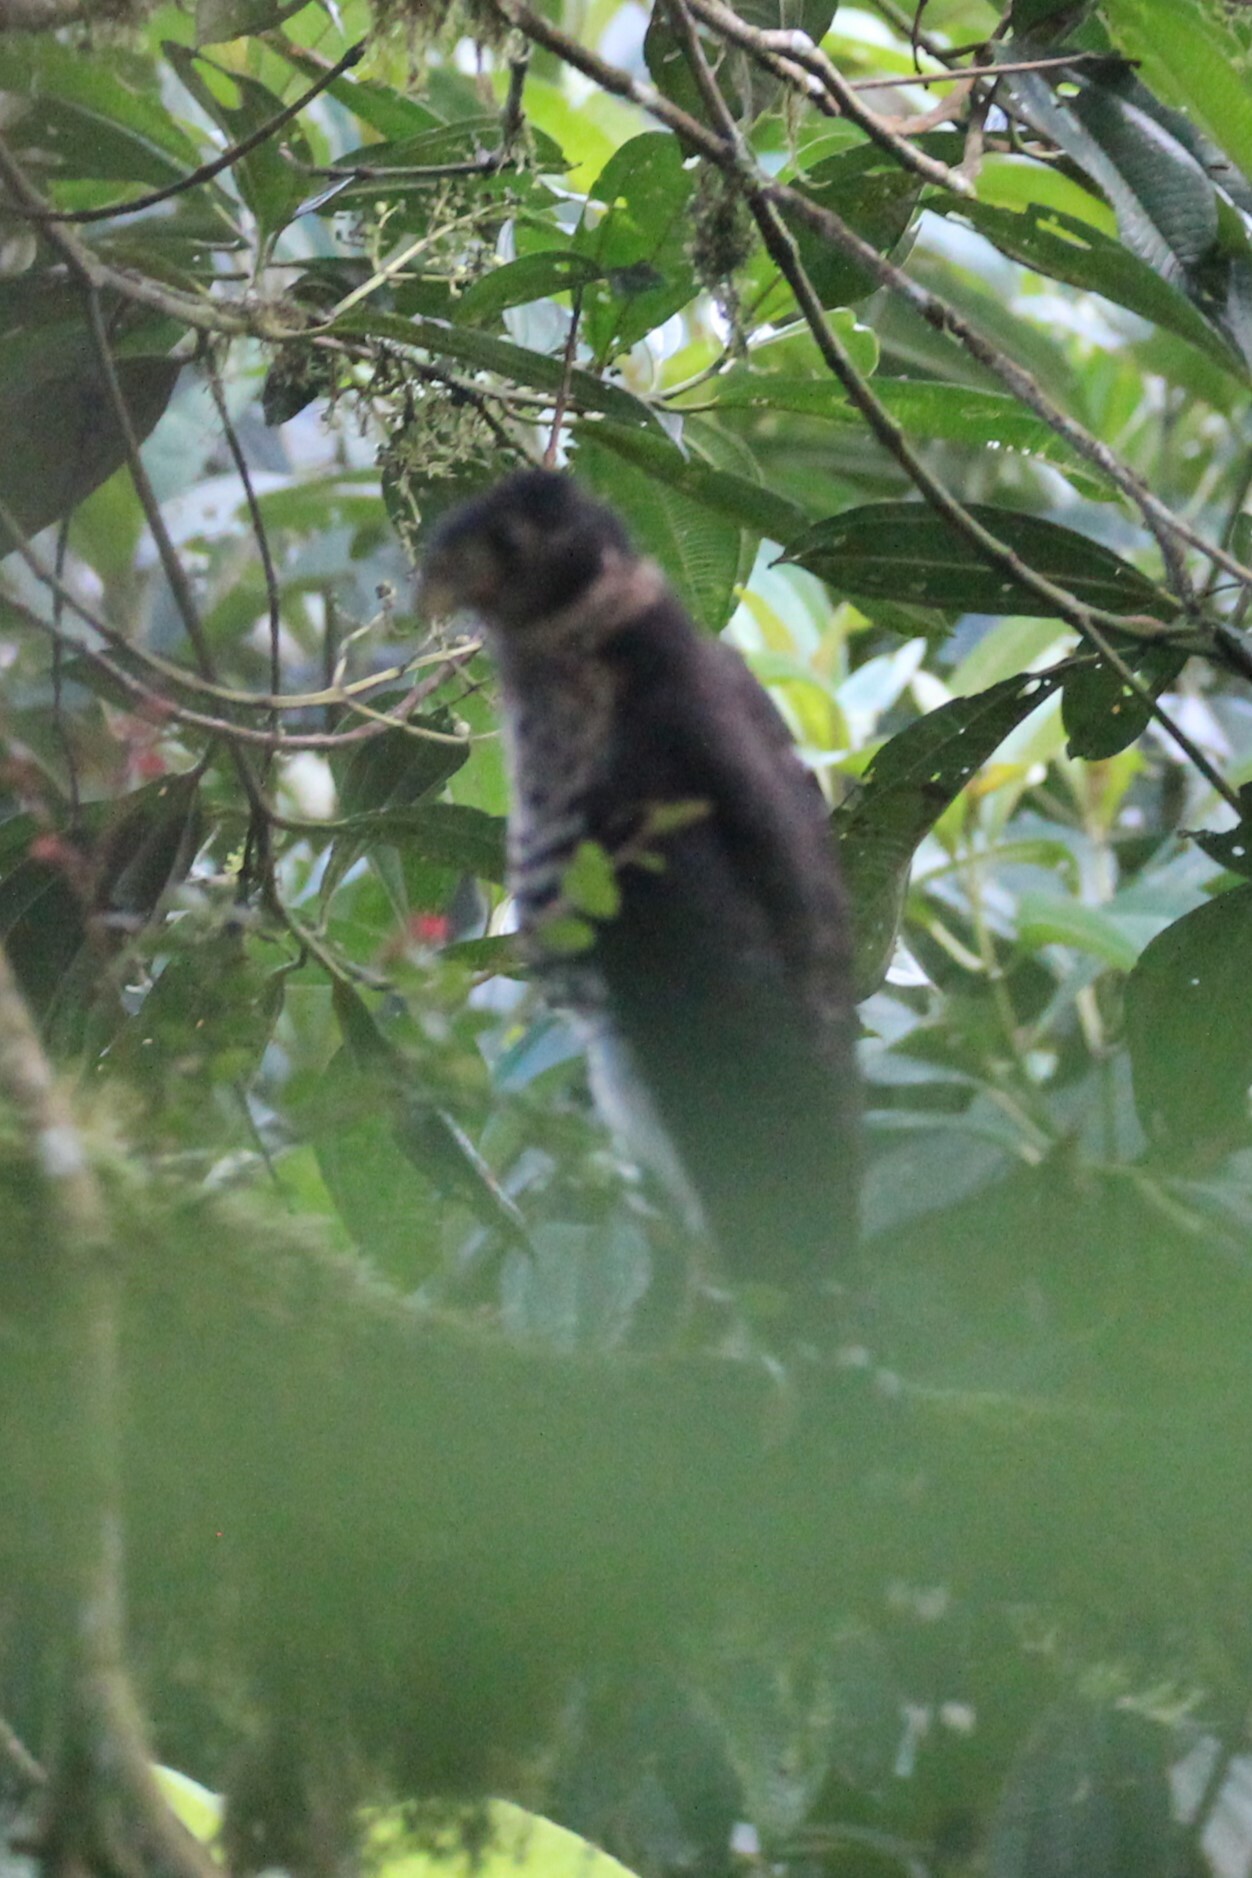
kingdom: Animalia
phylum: Chordata
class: Aves
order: Falconiformes
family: Falconidae
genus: Micrastur
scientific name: Micrastur semitorquatus
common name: Collared forest-falcon
